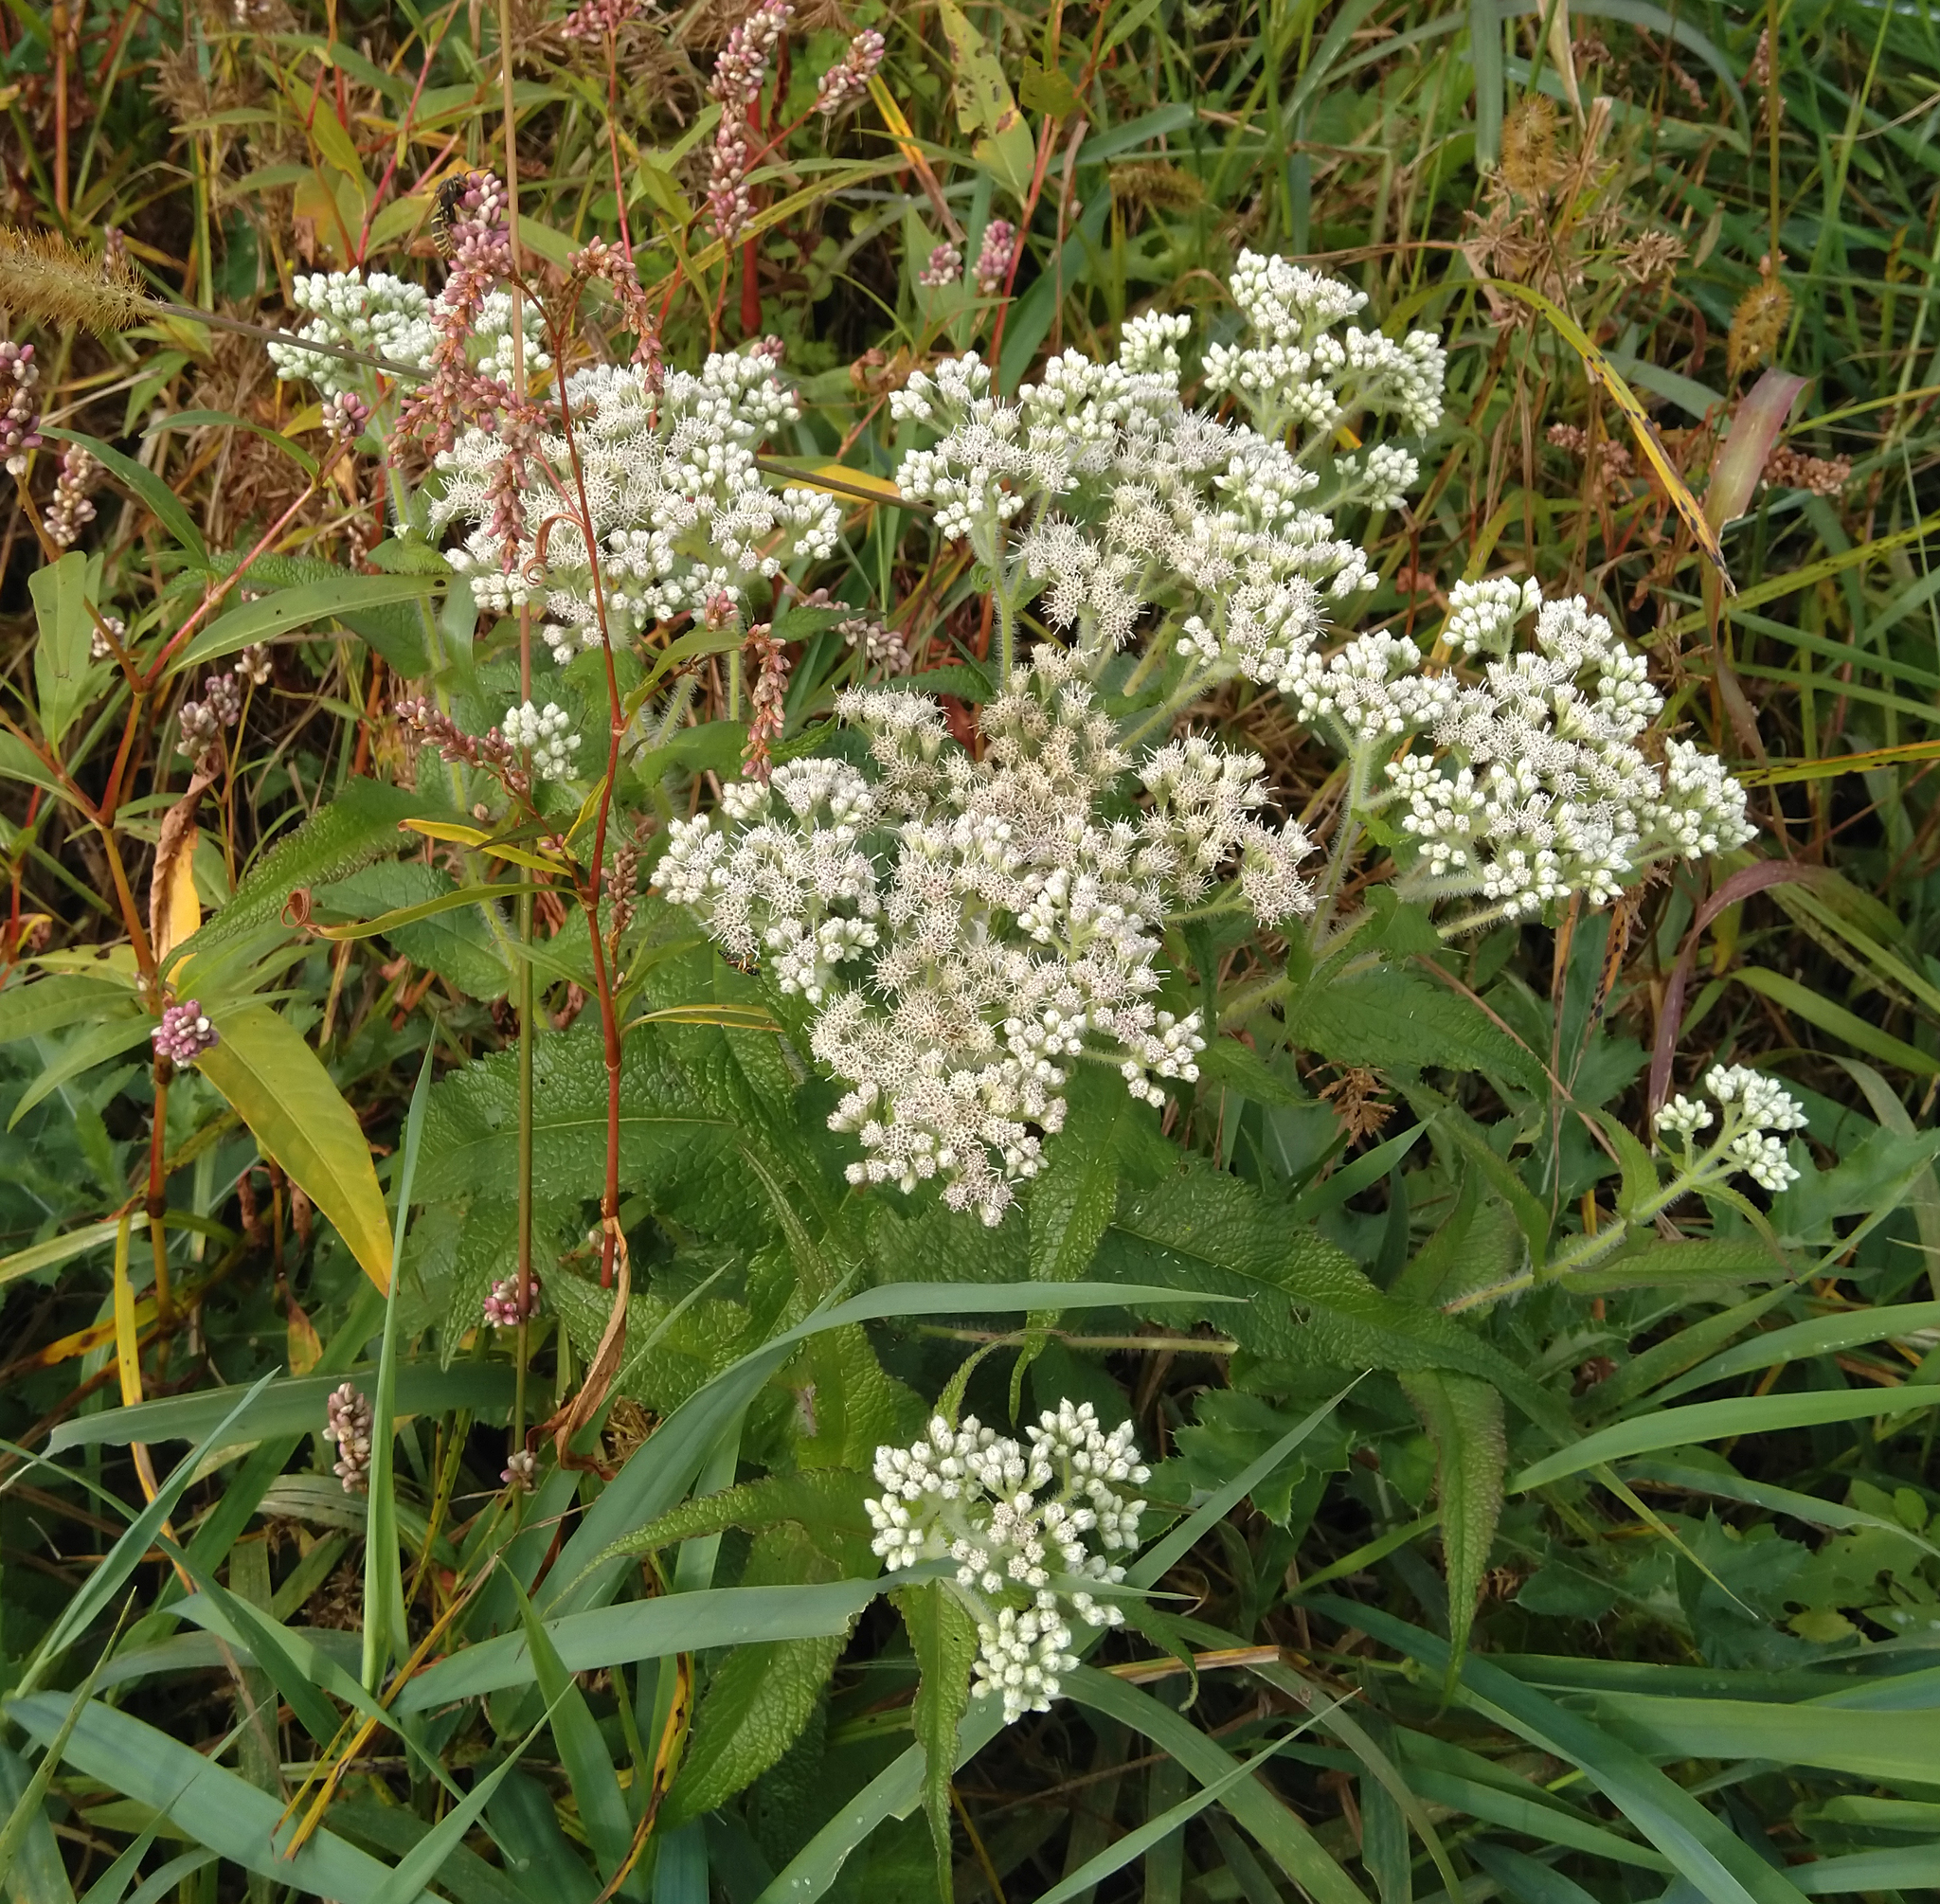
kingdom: Plantae
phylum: Tracheophyta
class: Magnoliopsida
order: Asterales
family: Asteraceae
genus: Eupatorium
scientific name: Eupatorium perfoliatum
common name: Boneset
